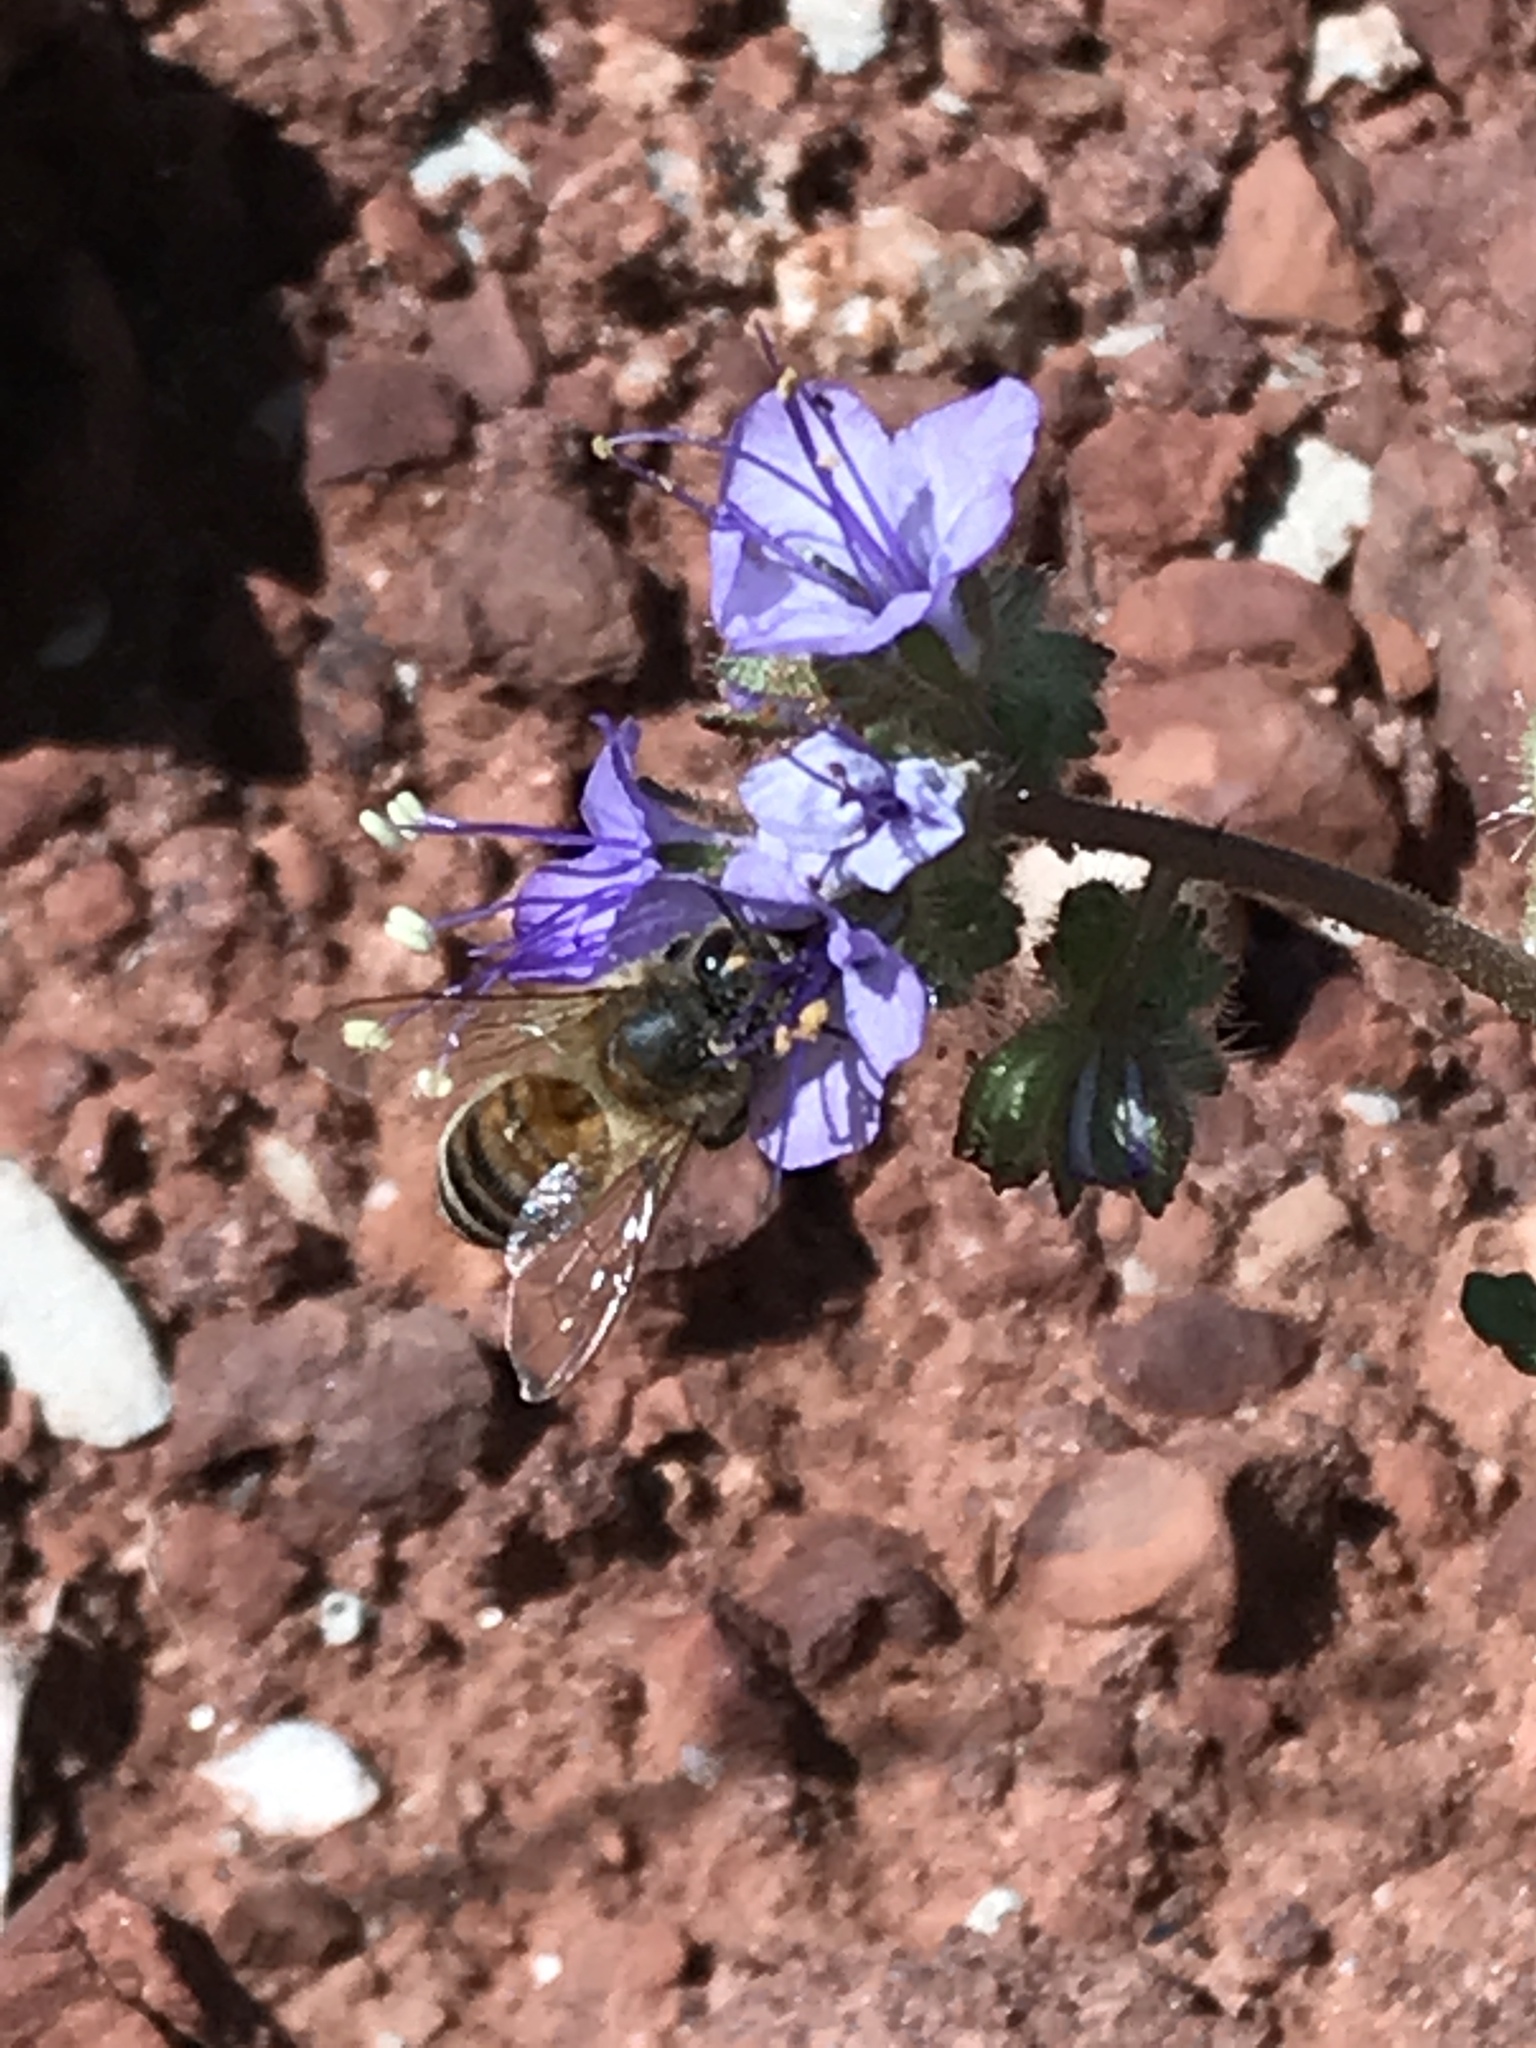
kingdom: Animalia
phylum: Arthropoda
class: Insecta
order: Hymenoptera
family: Apidae
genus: Apis
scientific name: Apis mellifera
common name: Honey bee
